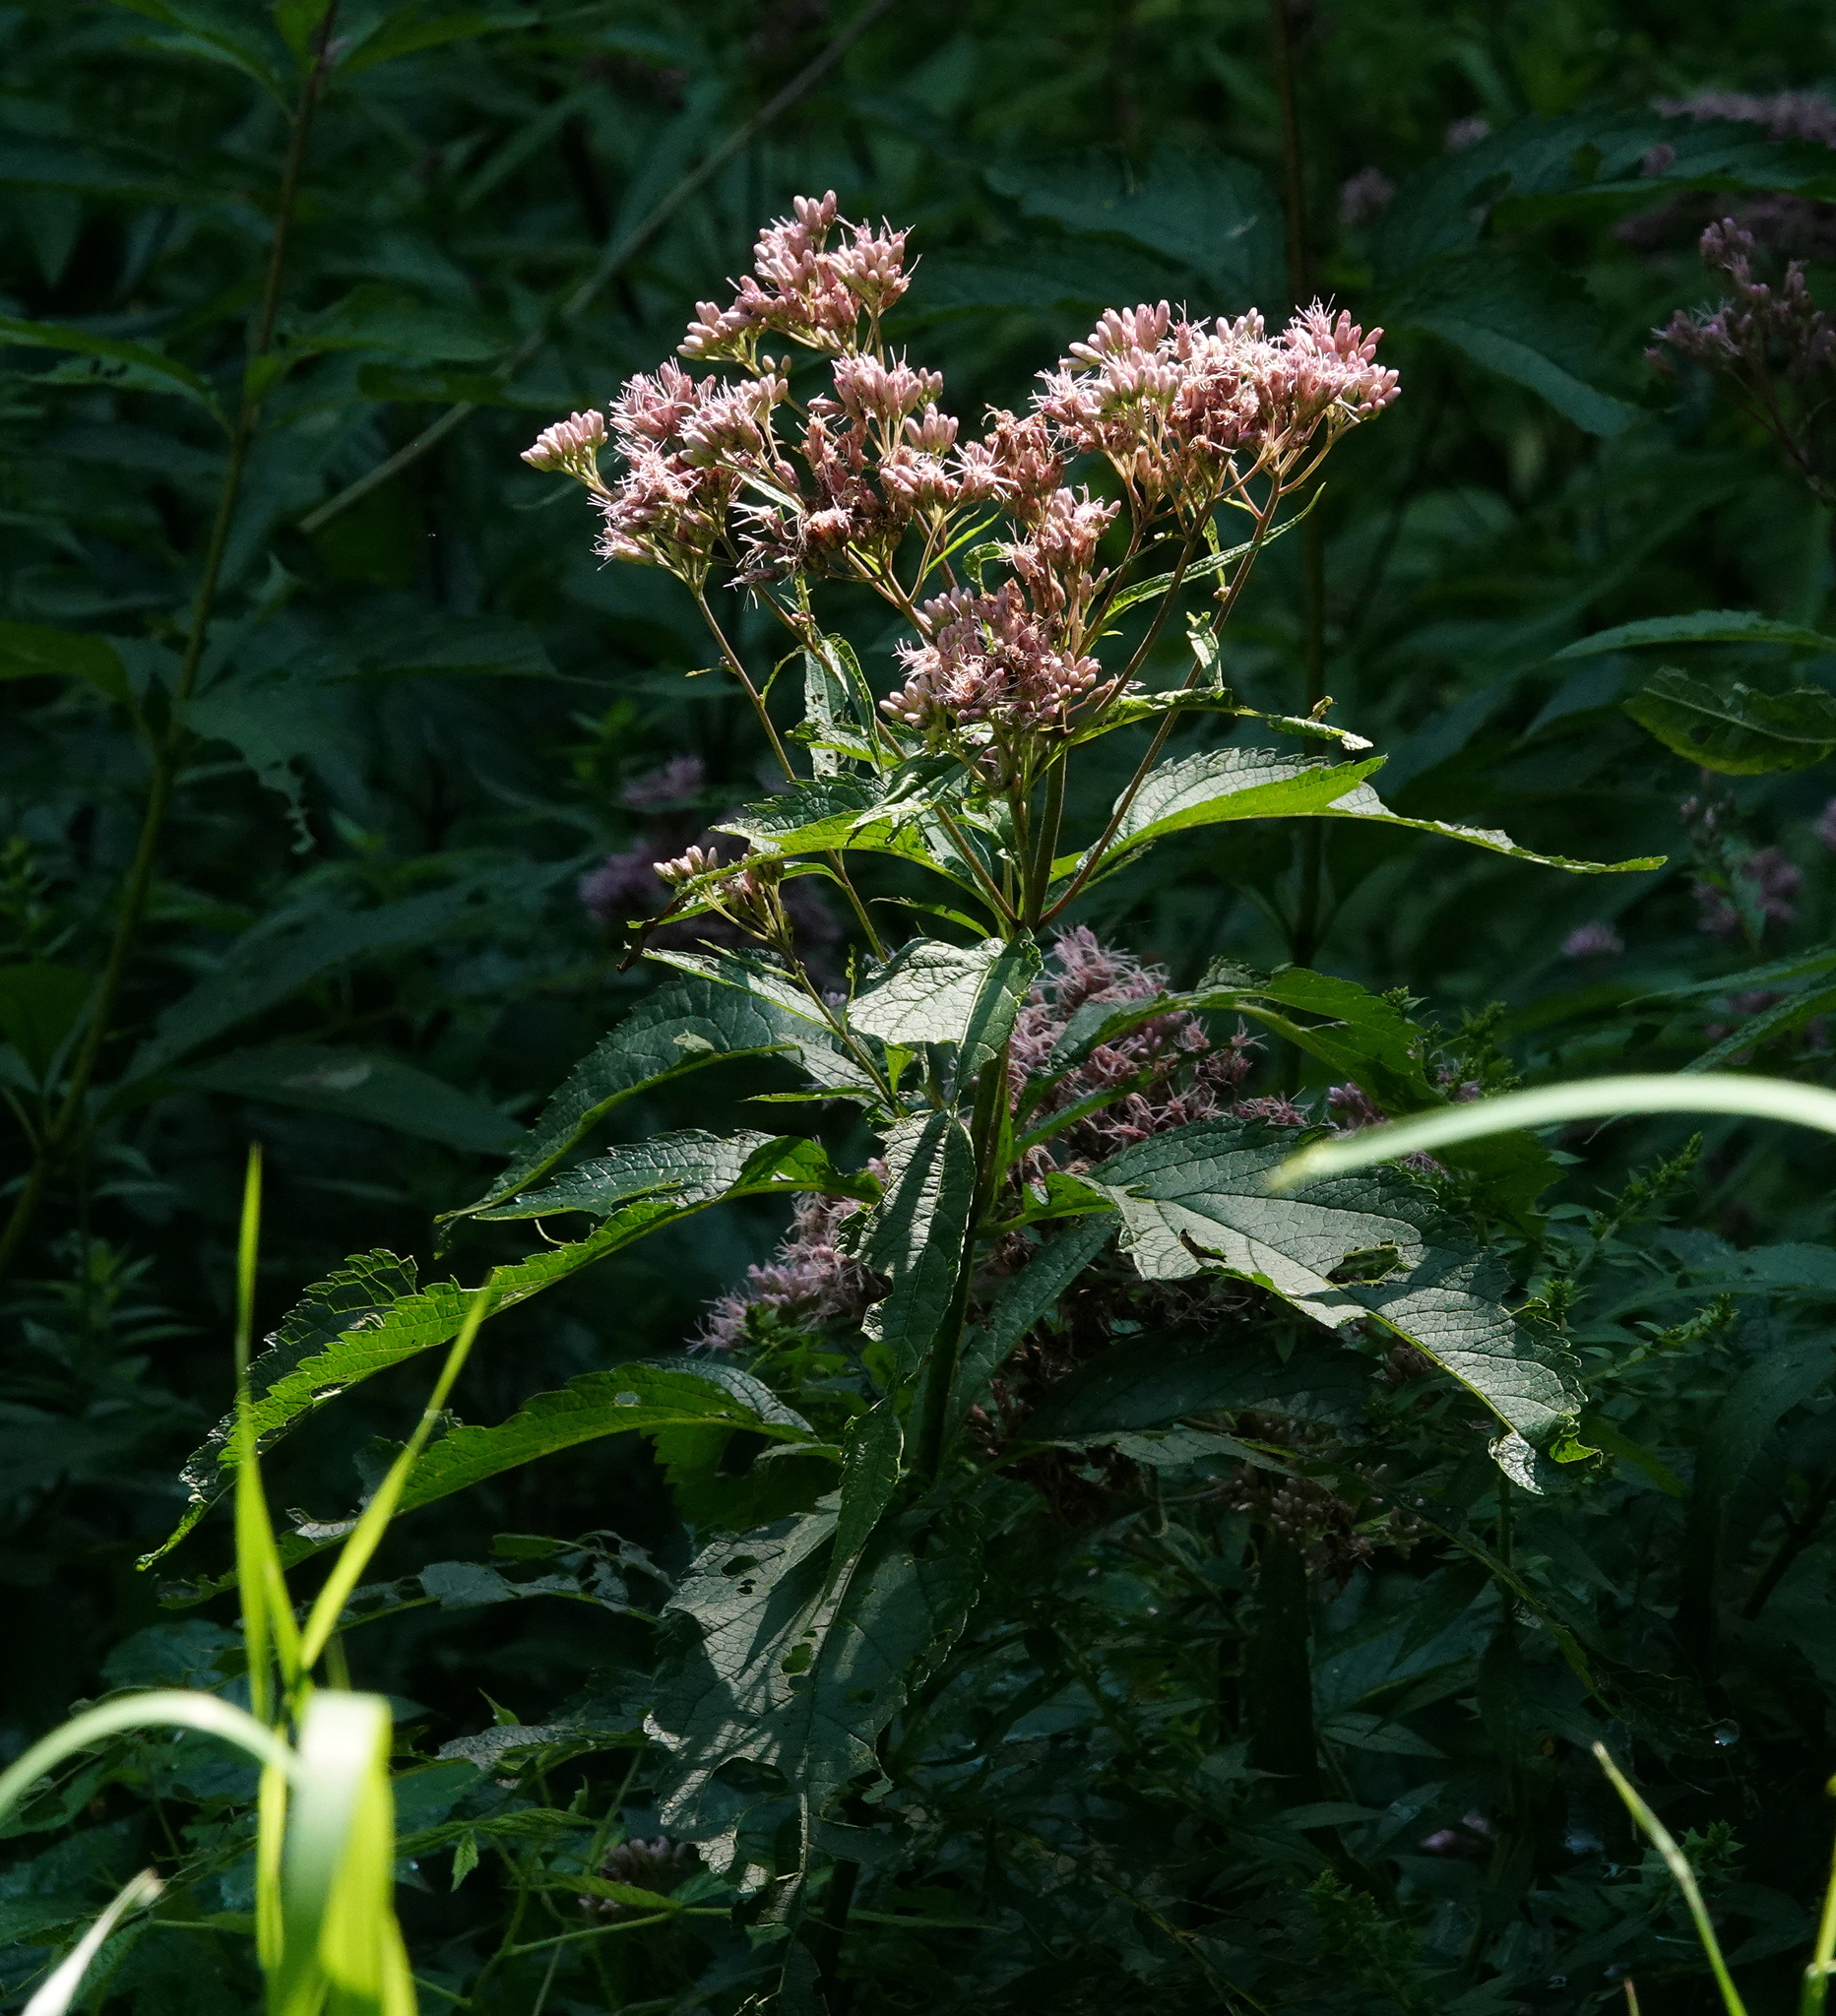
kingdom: Plantae
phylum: Tracheophyta
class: Magnoliopsida
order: Asterales
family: Asteraceae
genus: Eutrochium
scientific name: Eutrochium maculatum
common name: Spotted joe pye weed
